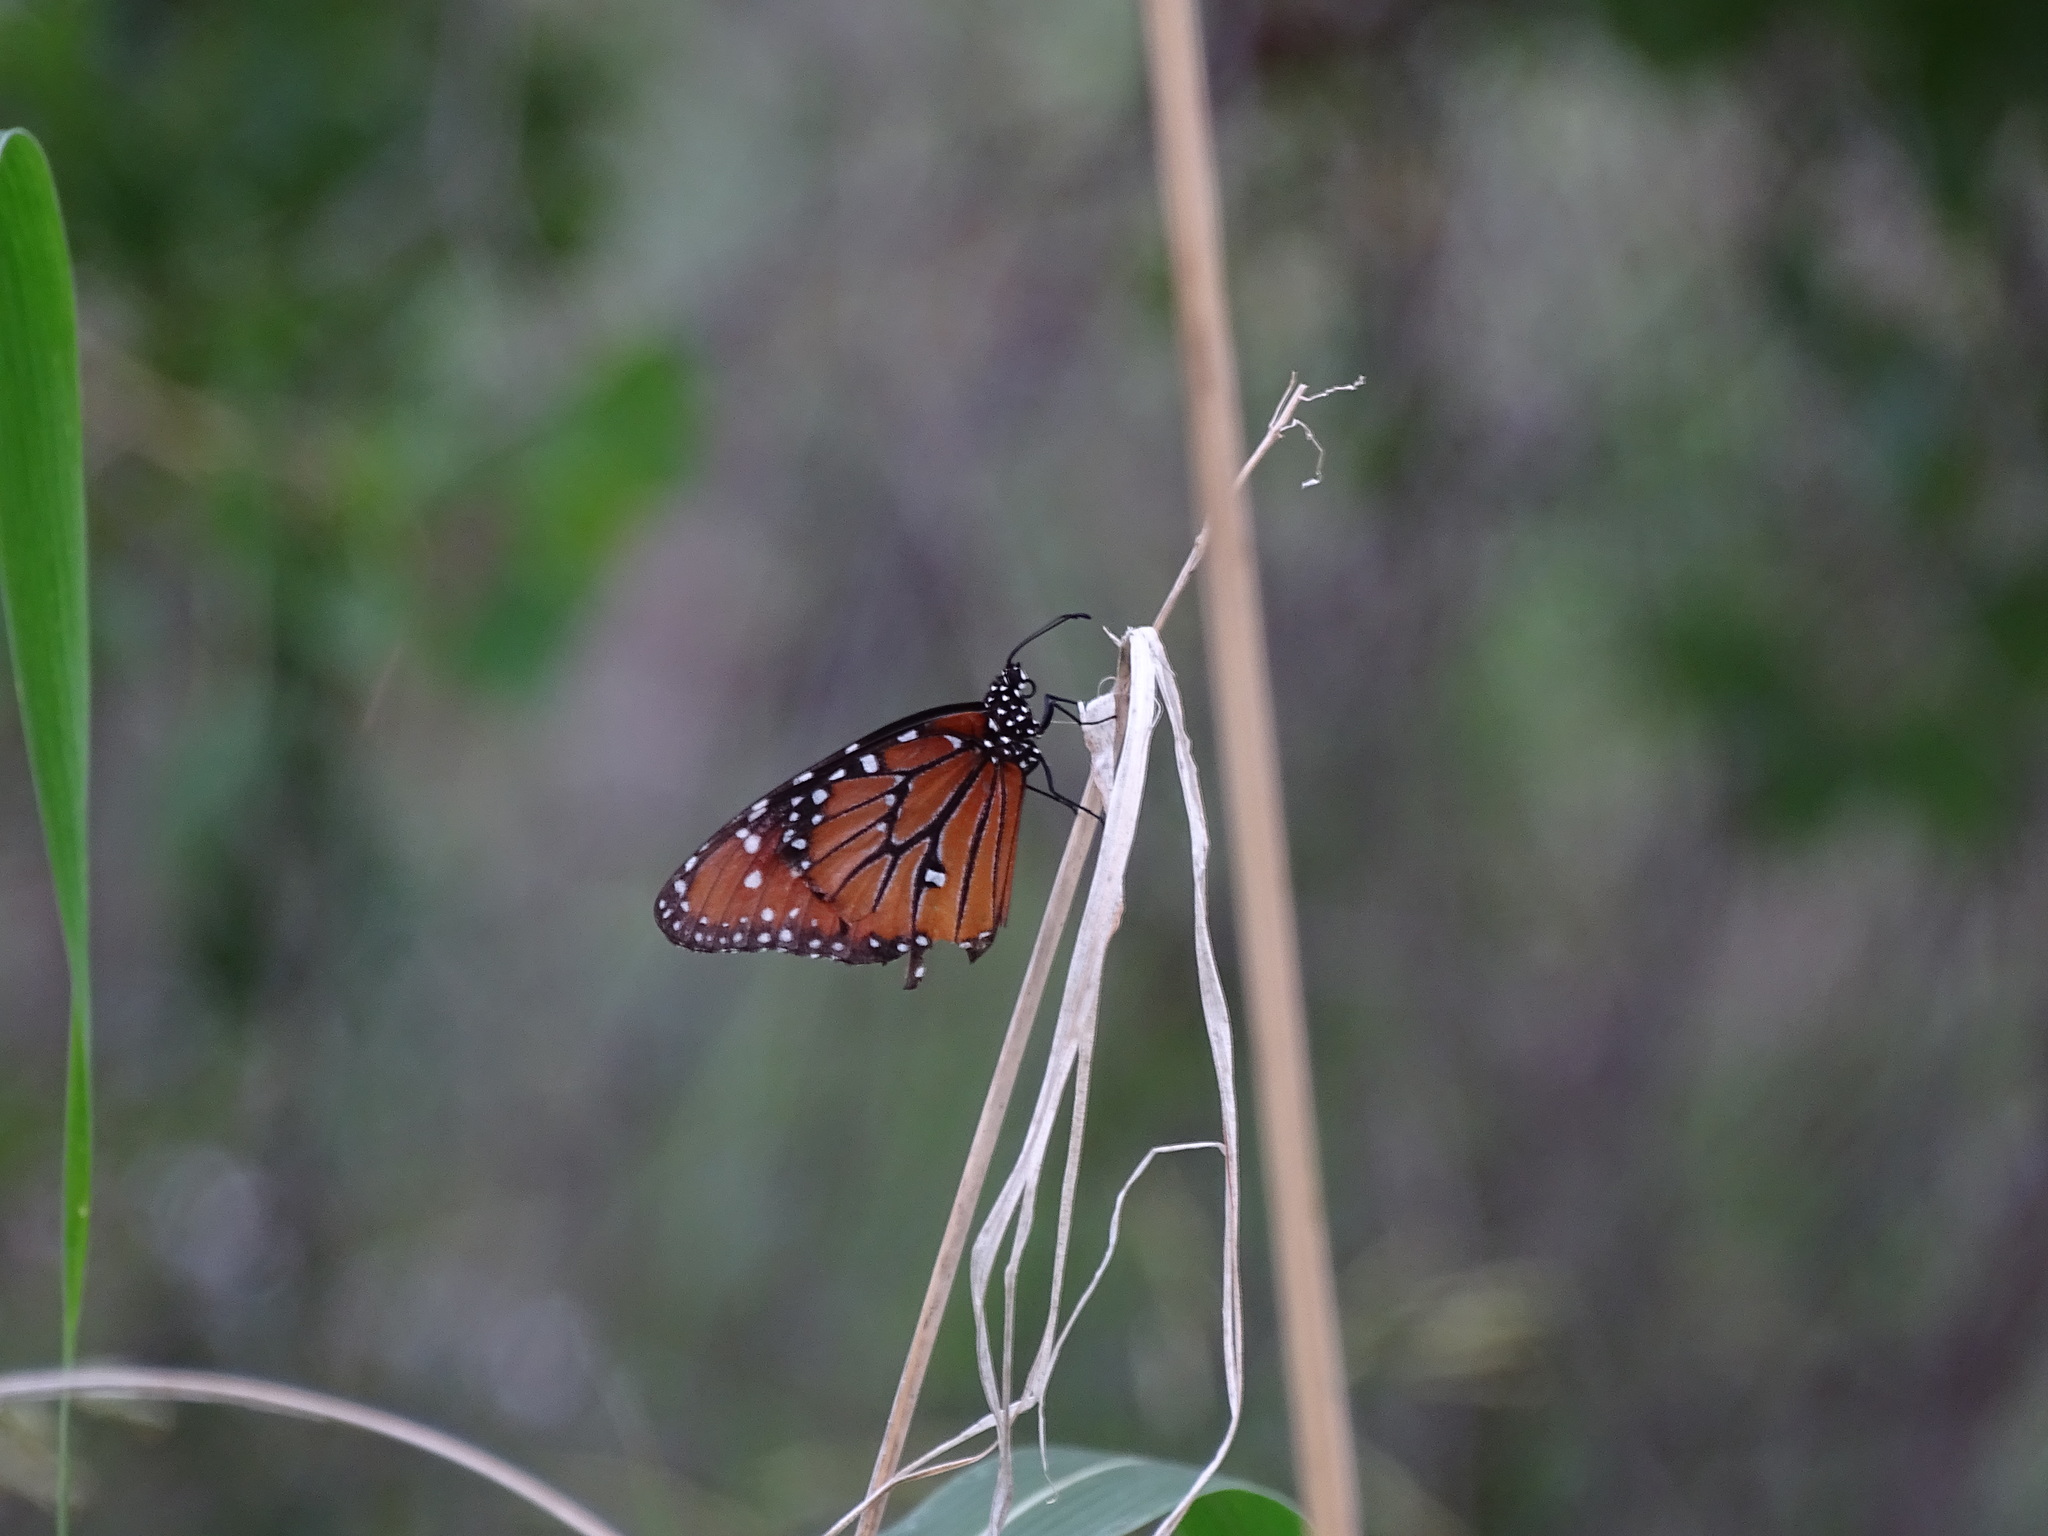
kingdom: Animalia
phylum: Arthropoda
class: Insecta
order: Lepidoptera
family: Nymphalidae
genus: Danaus
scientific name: Danaus gilippus
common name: Queen
